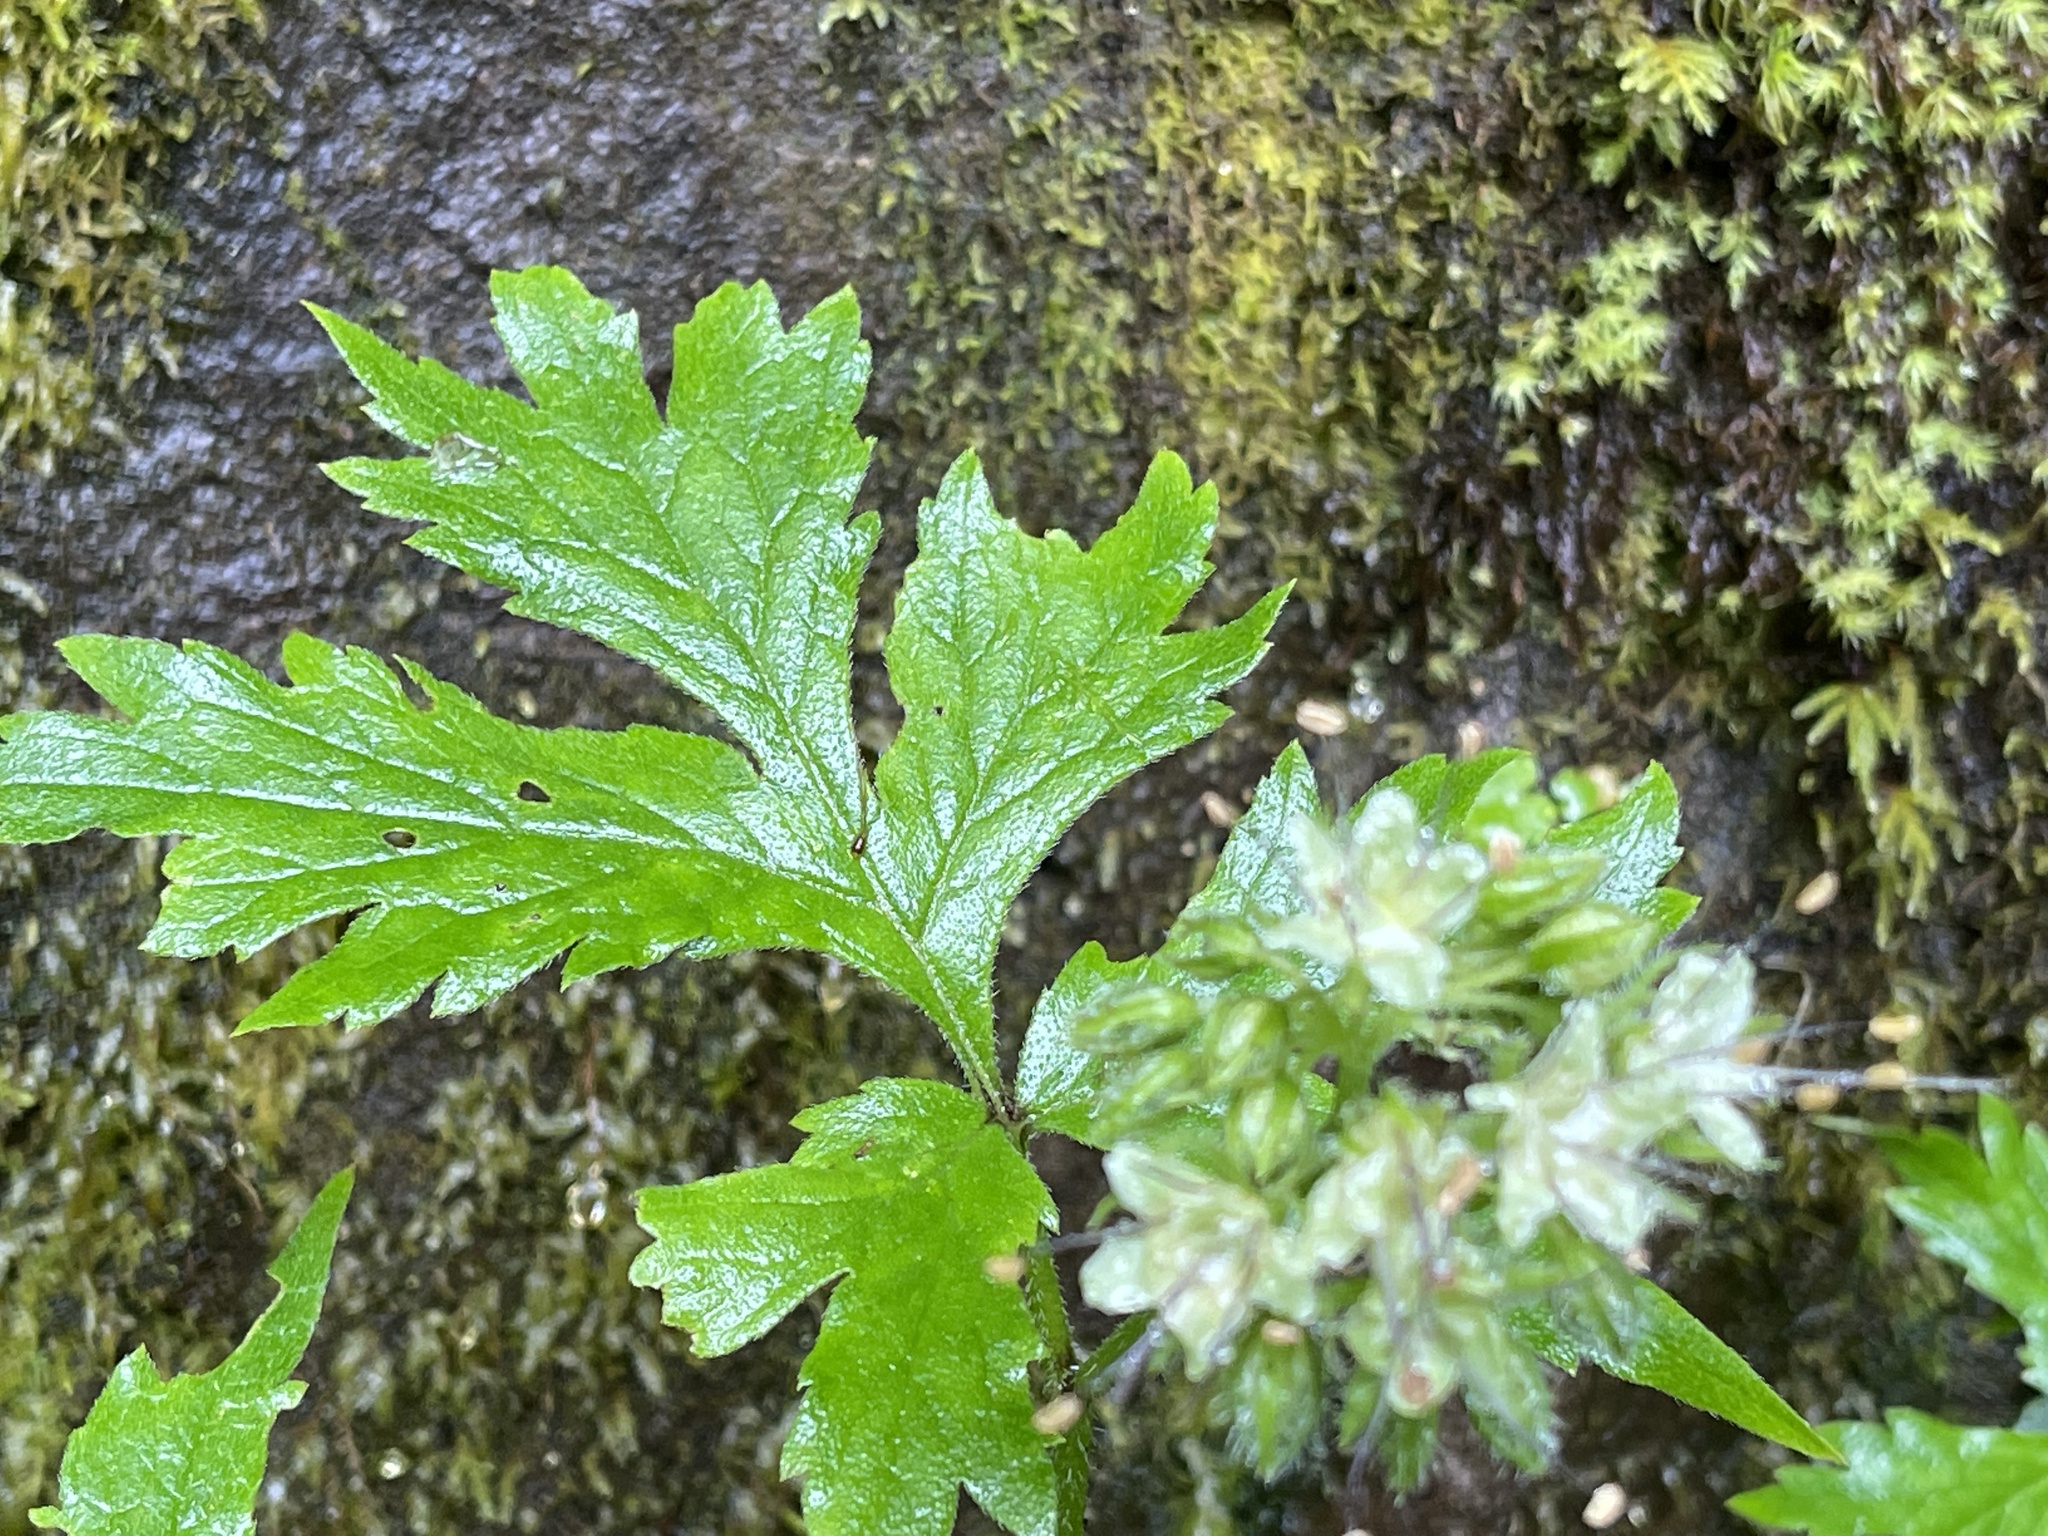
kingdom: Plantae
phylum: Tracheophyta
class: Magnoliopsida
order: Boraginales
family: Hydrophyllaceae
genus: Hydrophyllum
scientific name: Hydrophyllum tenuipes
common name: Pacific waterleaf
